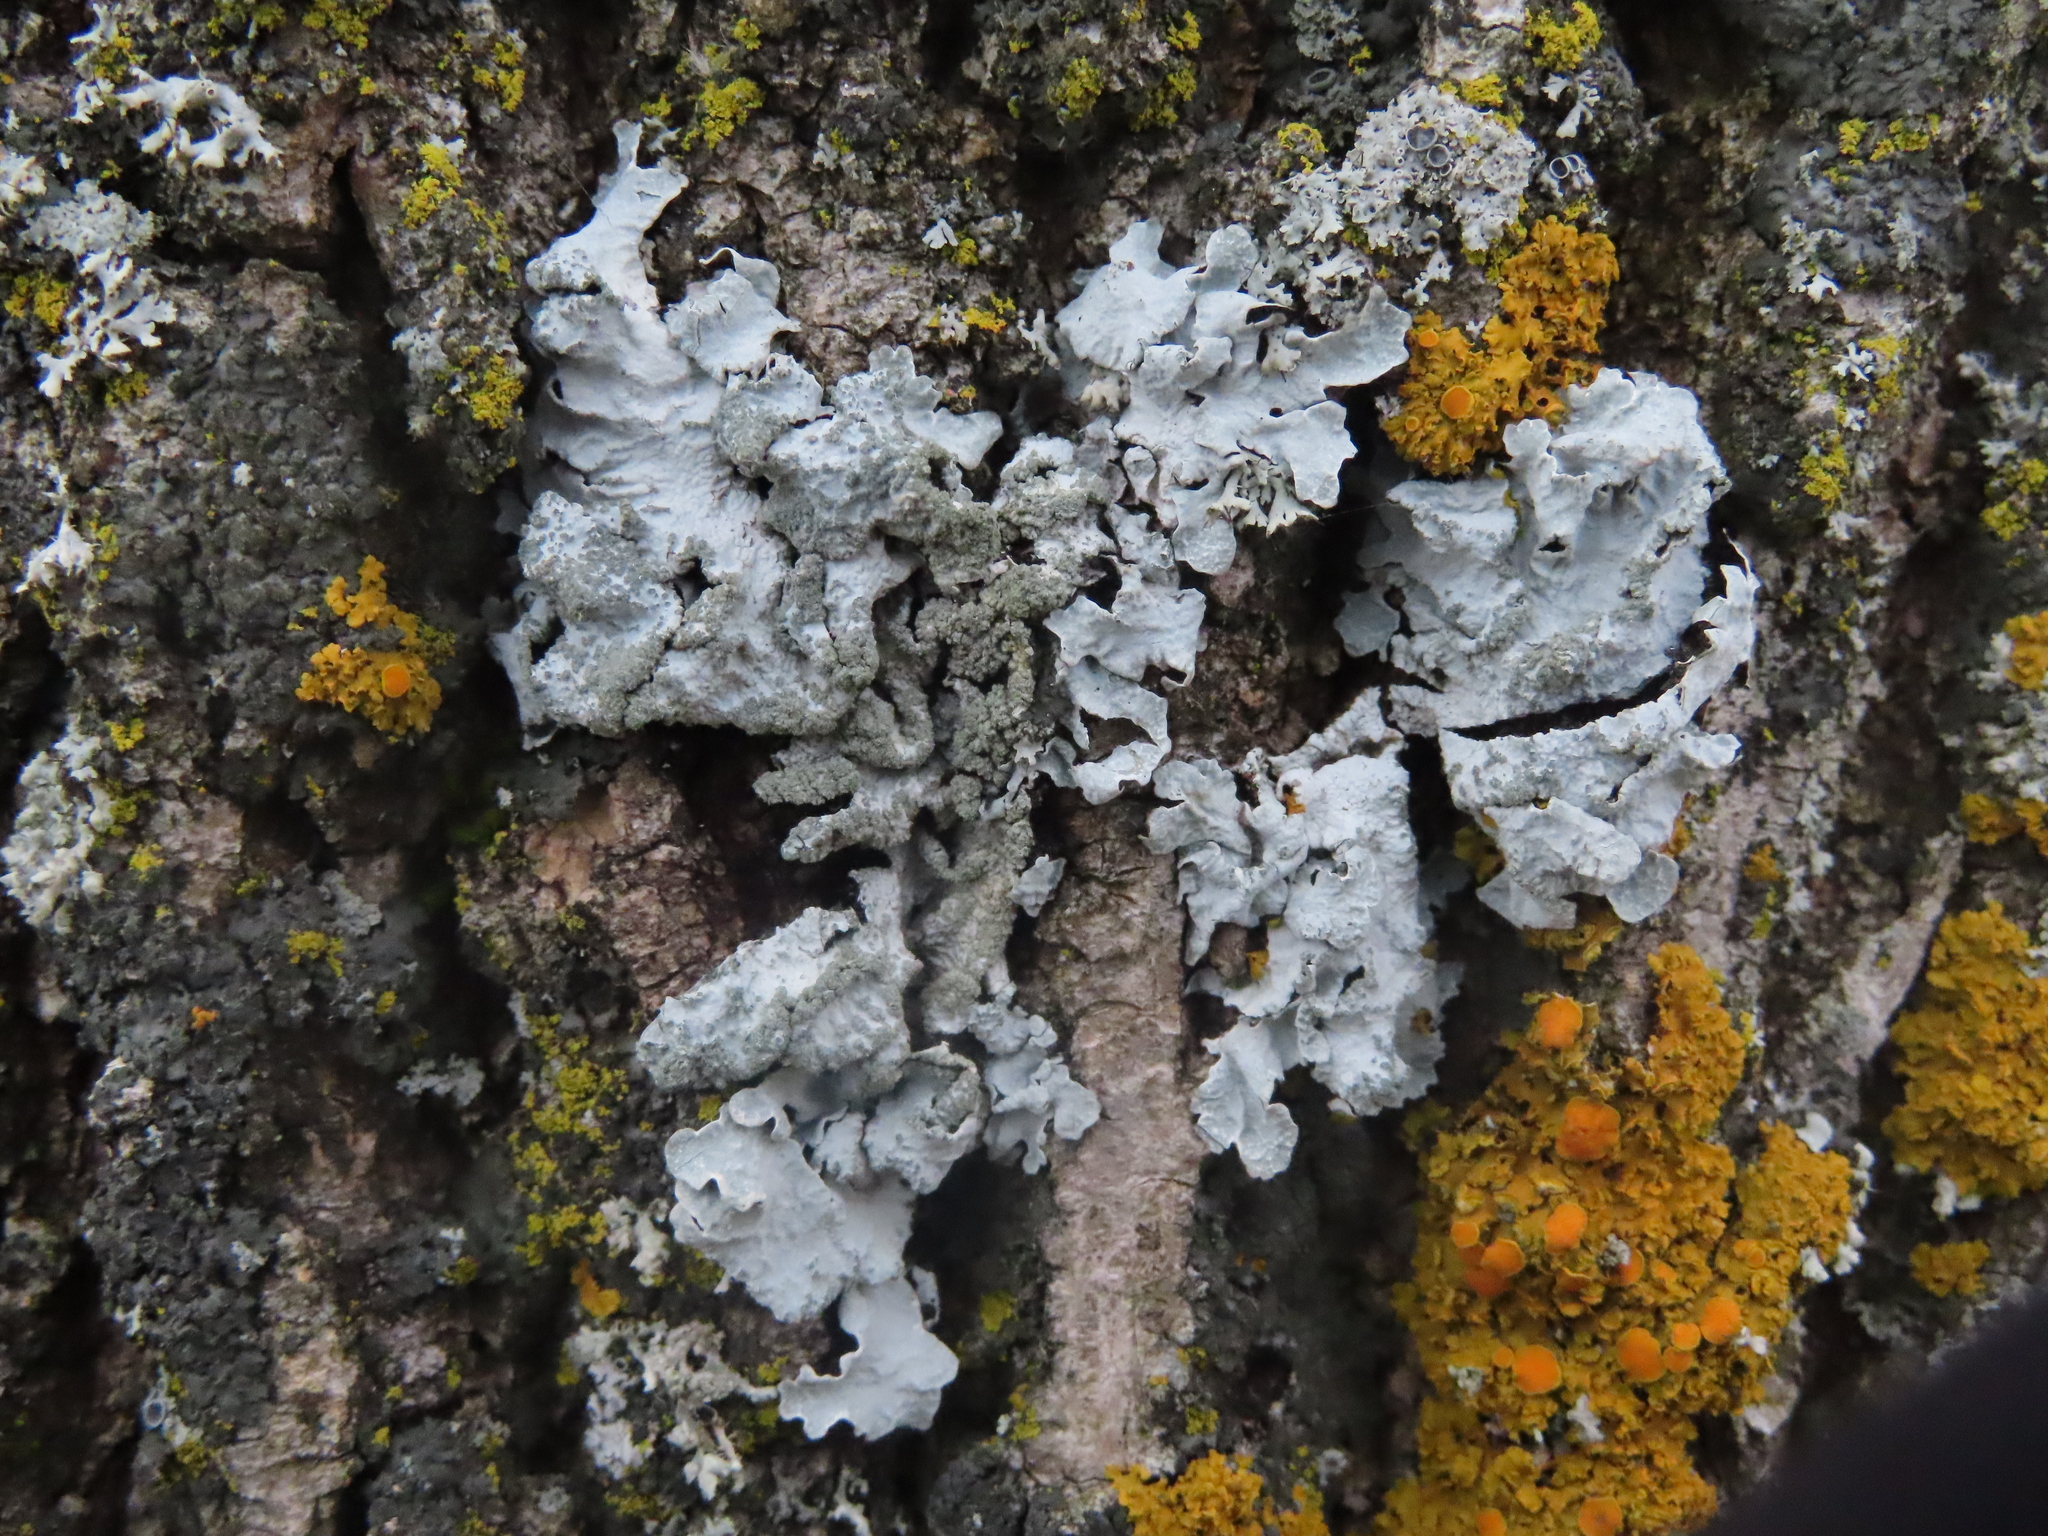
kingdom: Fungi
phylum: Ascomycota
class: Lecanoromycetes
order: Lecanorales
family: Parmeliaceae
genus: Parmelia
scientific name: Parmelia sulcata
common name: Netted shield lichen
